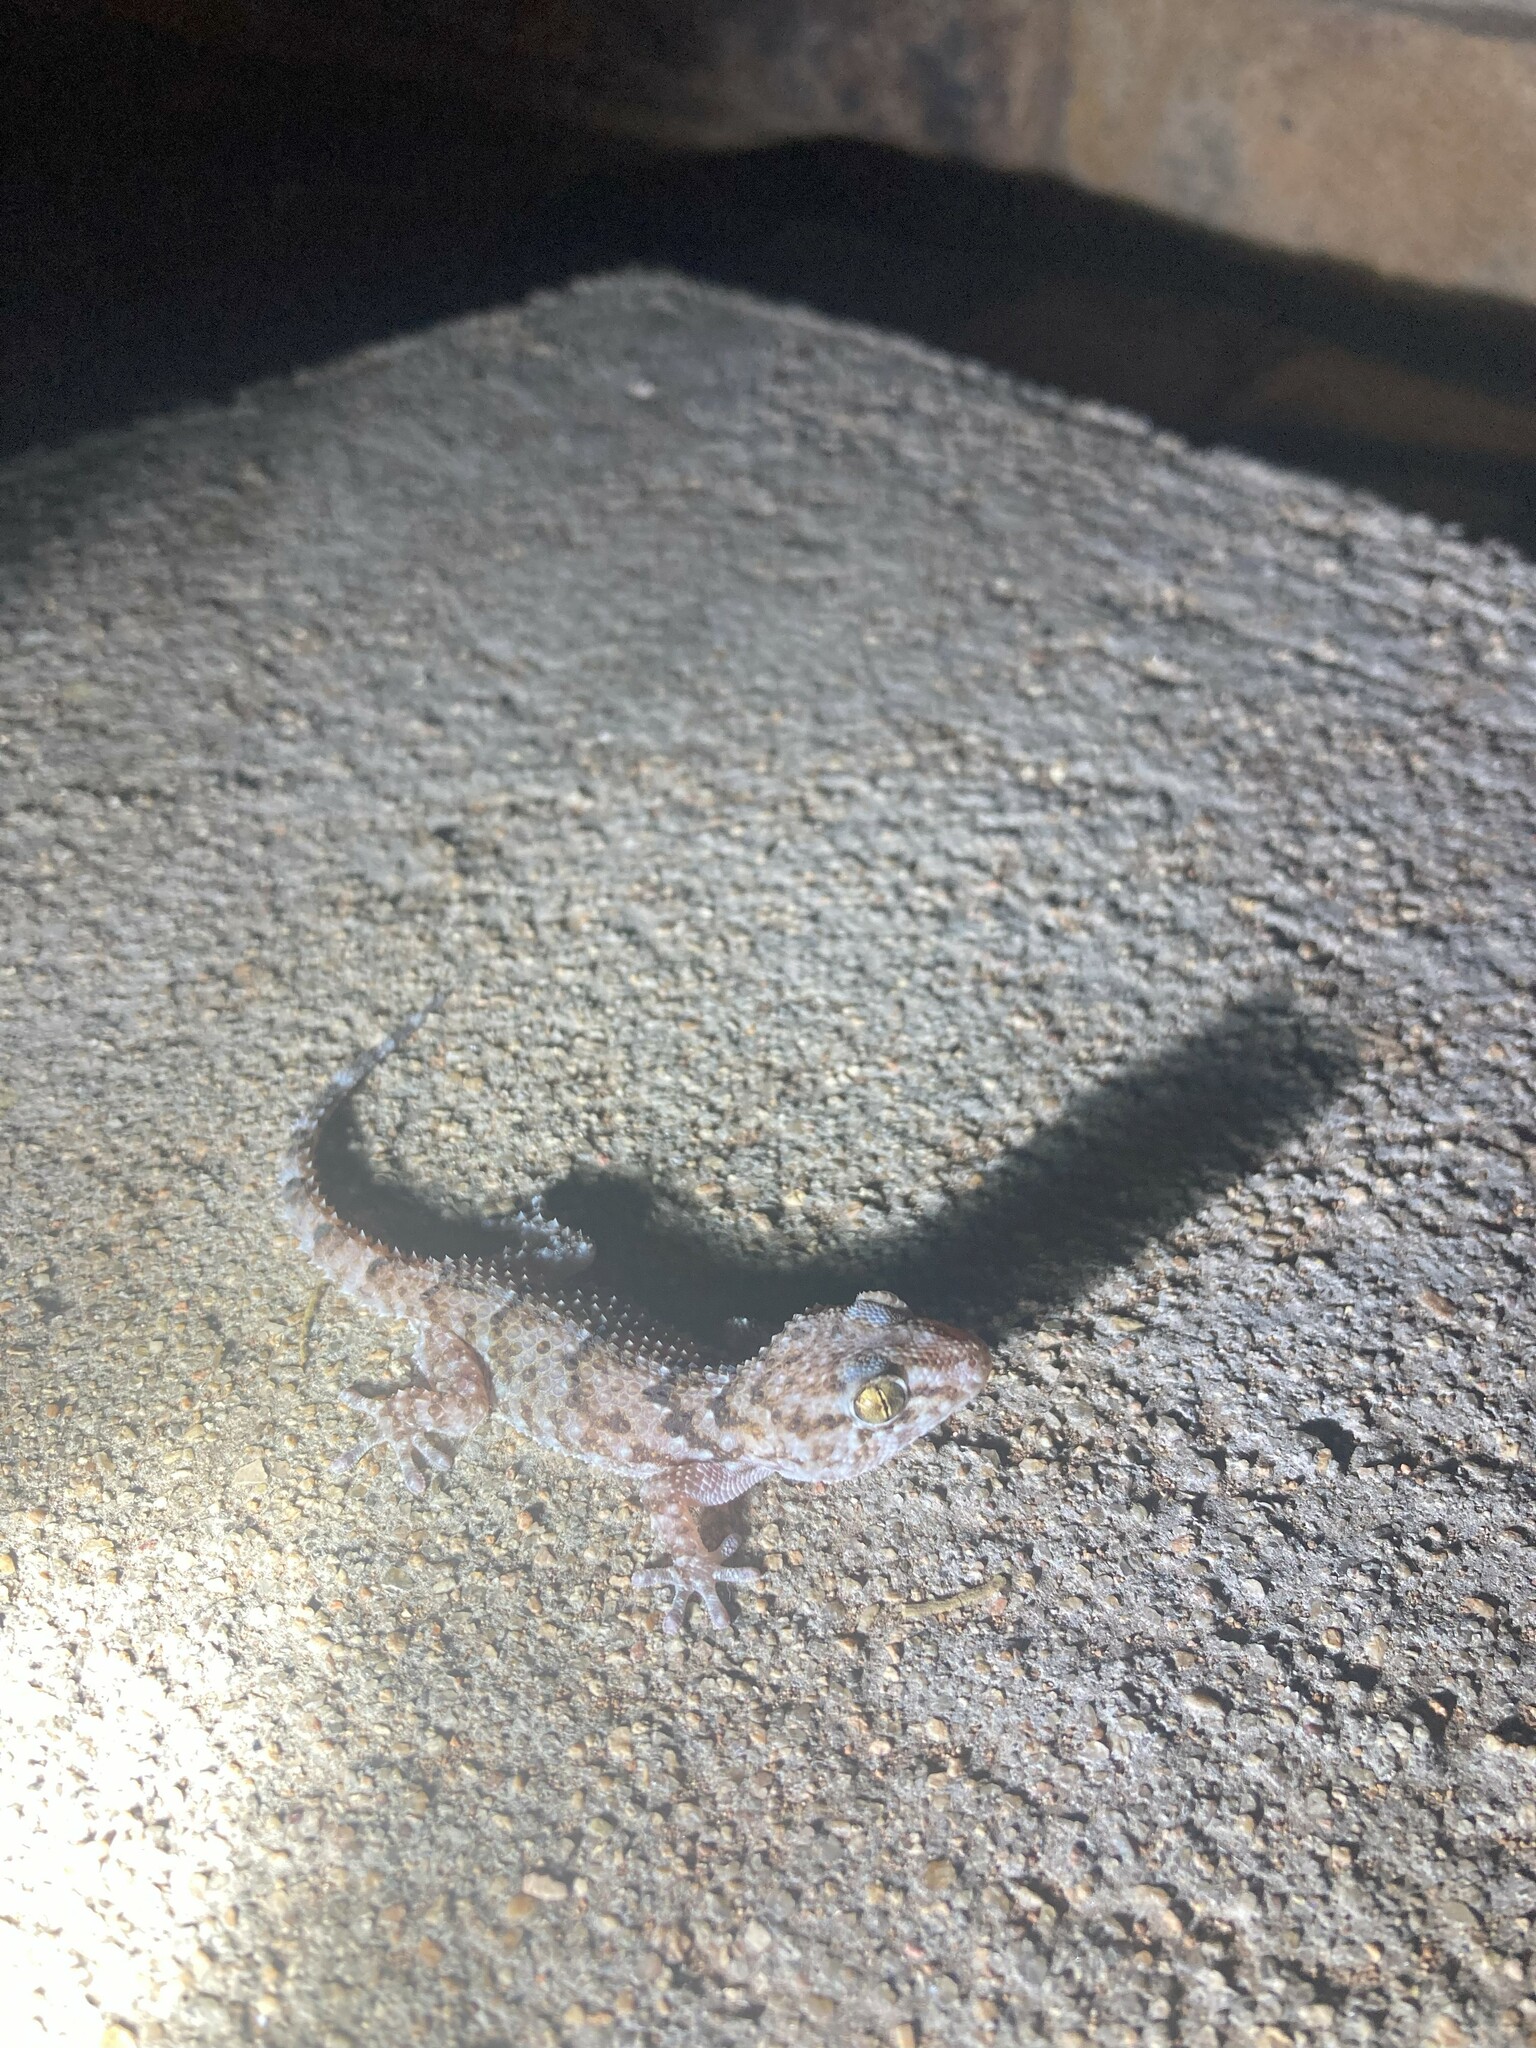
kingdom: Animalia
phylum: Chordata
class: Squamata
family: Gekkonidae
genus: Chondrodactylus
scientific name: Chondrodactylus turneri
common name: Turner’s gecko
